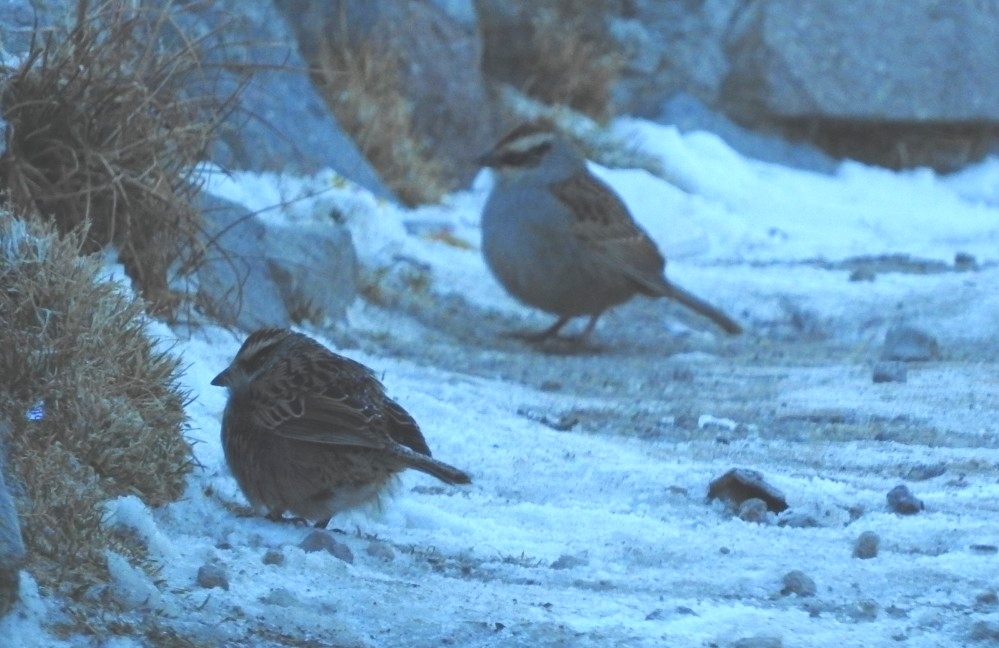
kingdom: Animalia
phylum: Chordata
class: Aves
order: Passeriformes
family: Passerellidae
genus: Oriturus
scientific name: Oriturus superciliosus
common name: Striped sparrow
